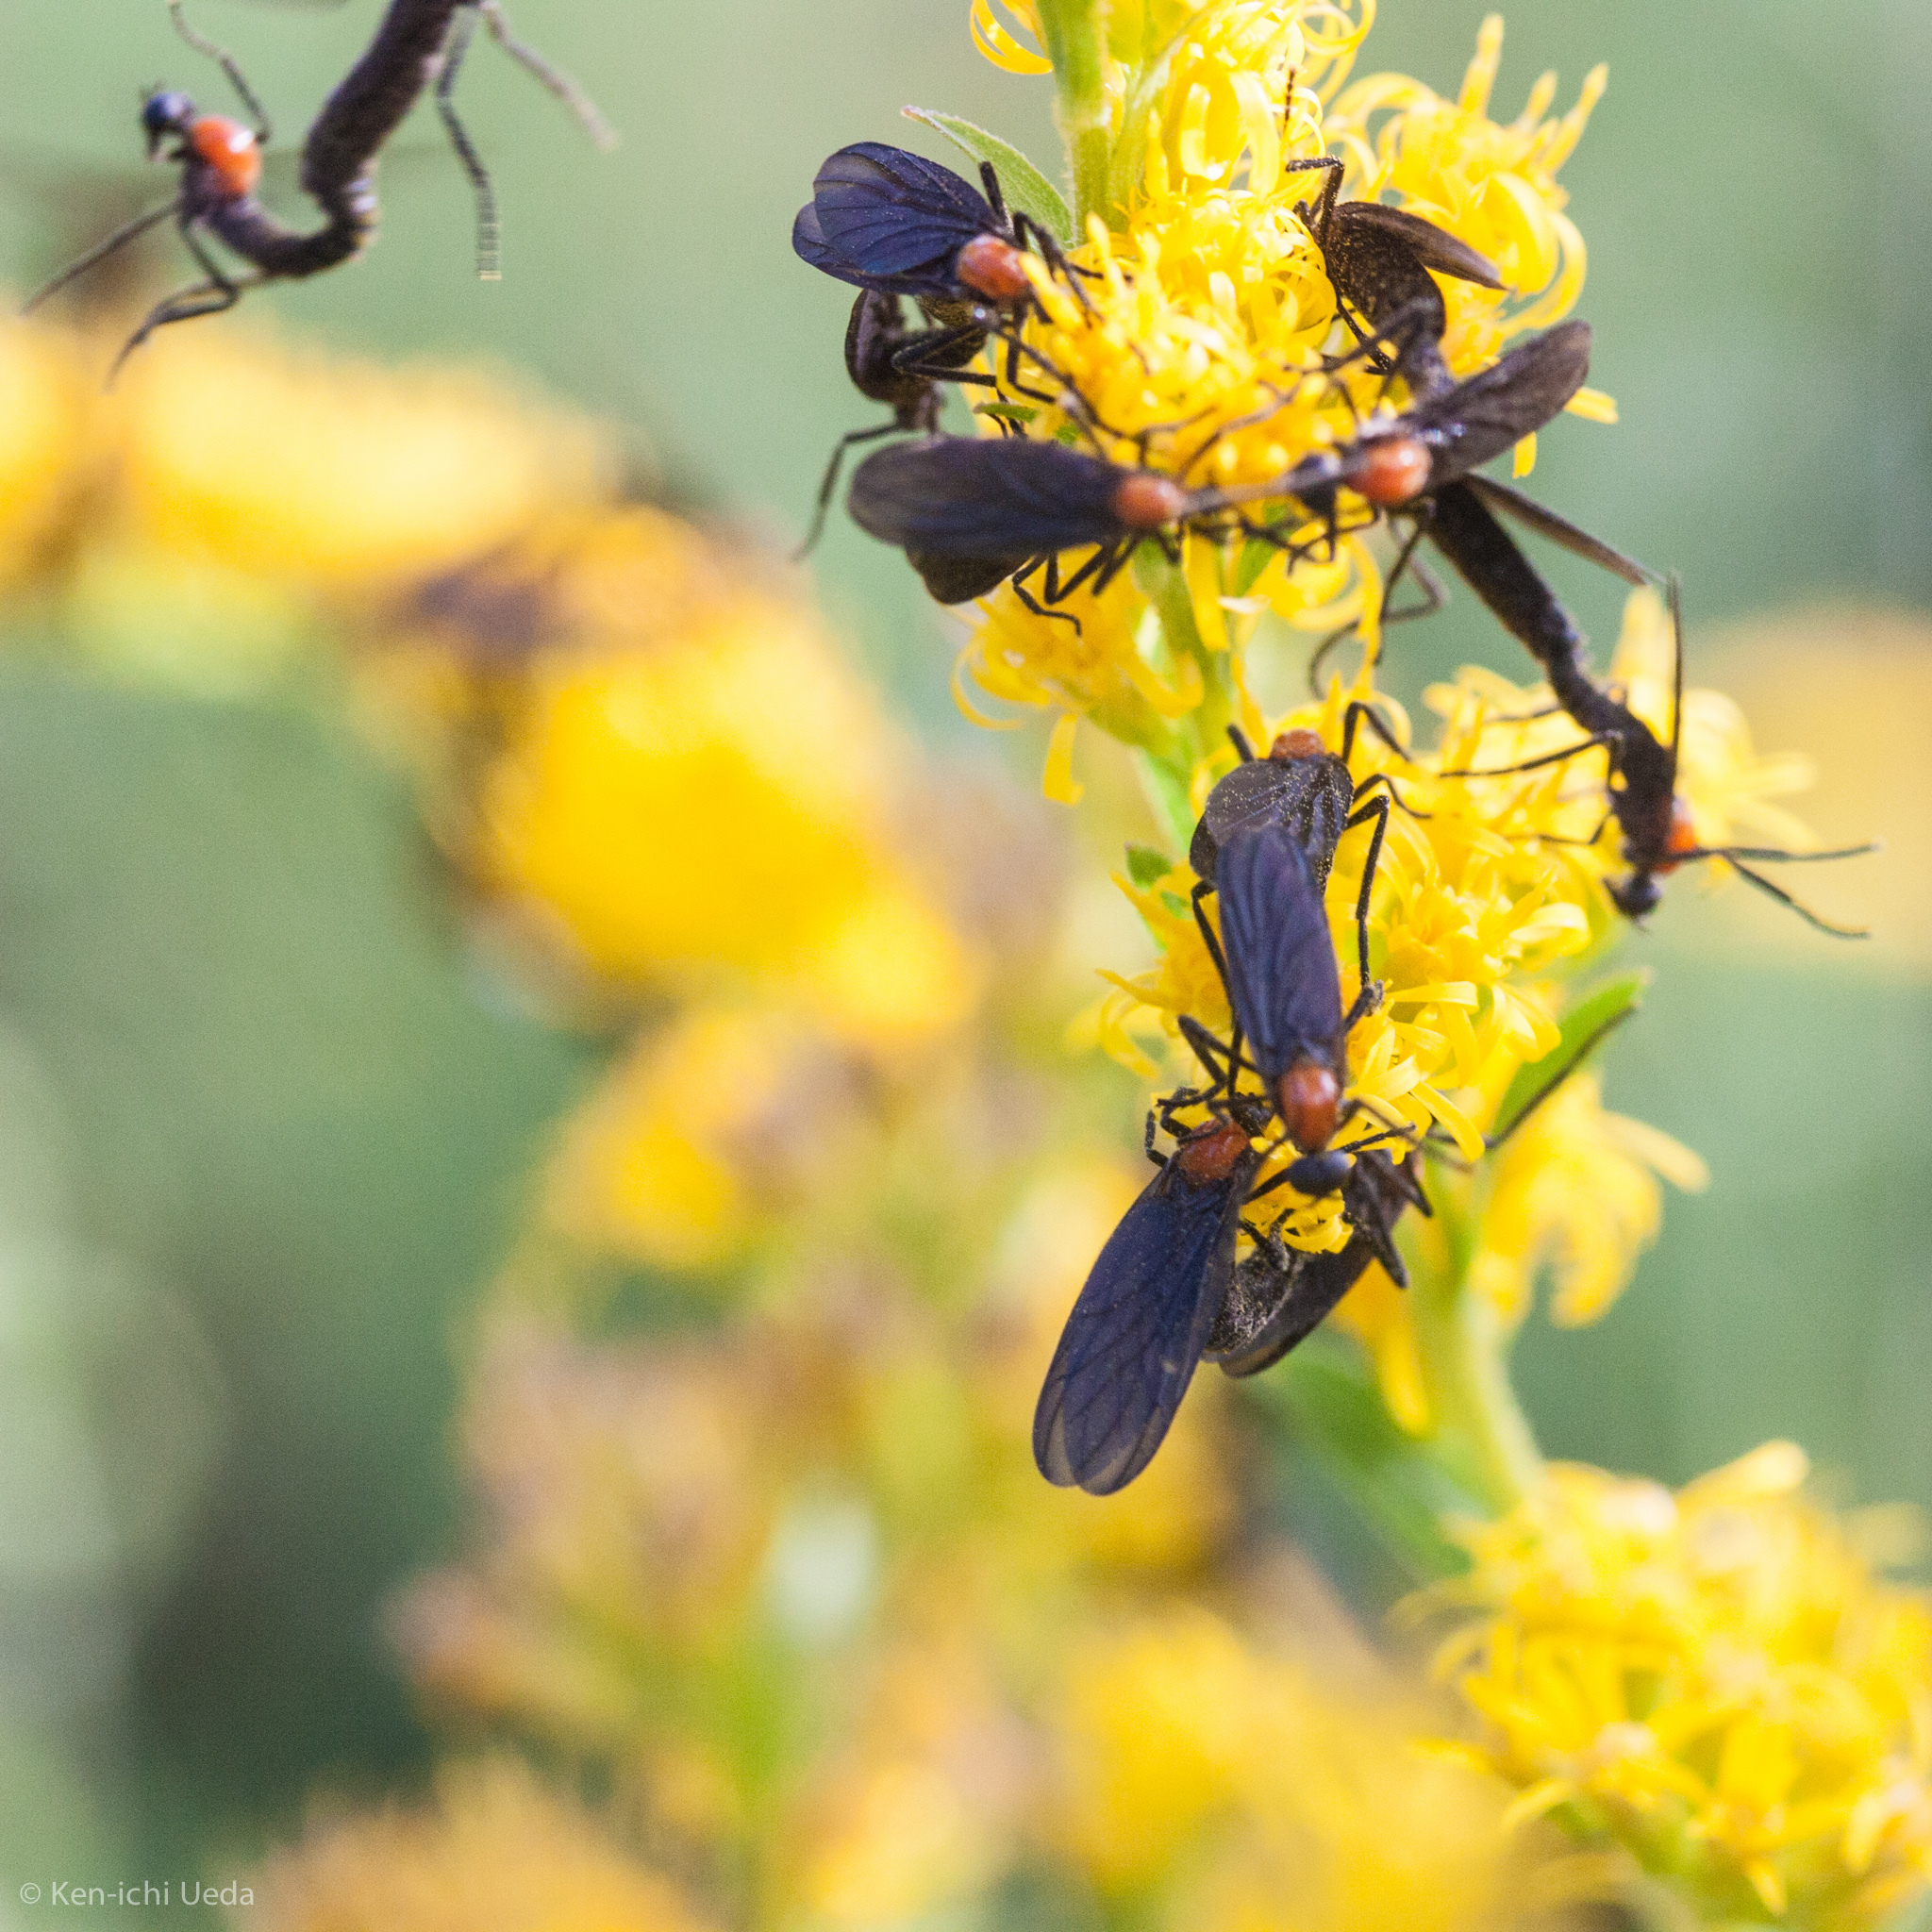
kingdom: Animalia
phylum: Arthropoda
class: Insecta
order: Diptera
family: Bibionidae
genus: Plecia
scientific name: Plecia nearctica
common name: March fly
